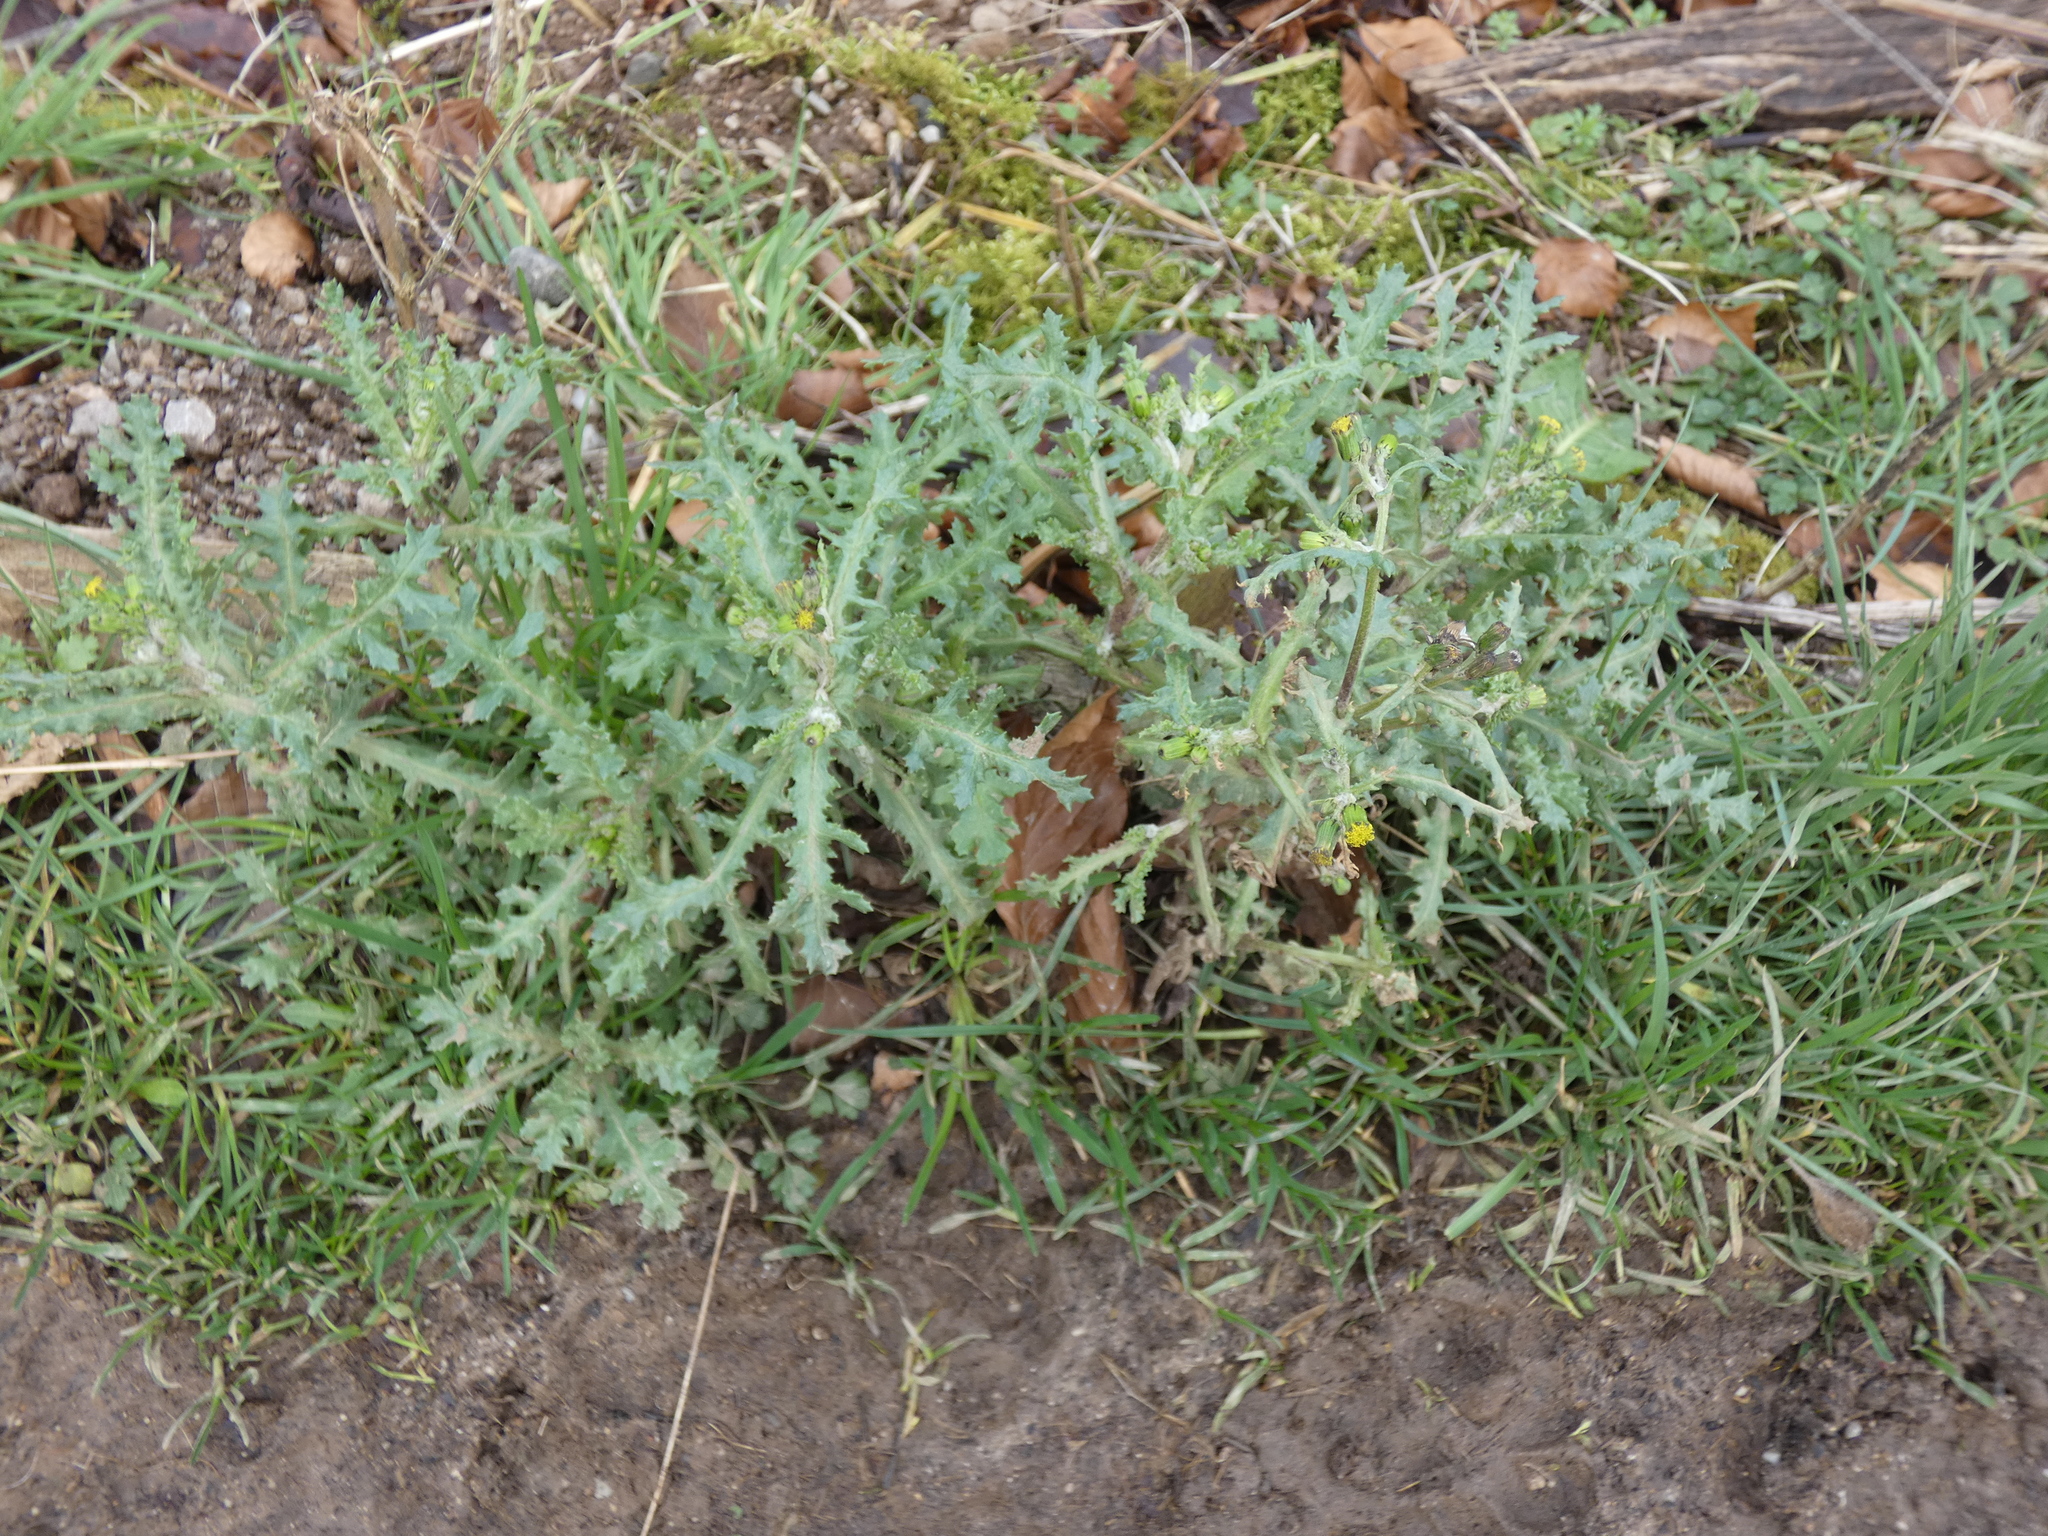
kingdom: Plantae
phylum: Tracheophyta
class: Magnoliopsida
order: Asterales
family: Asteraceae
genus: Senecio
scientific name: Senecio vulgaris
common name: Old-man-in-the-spring
